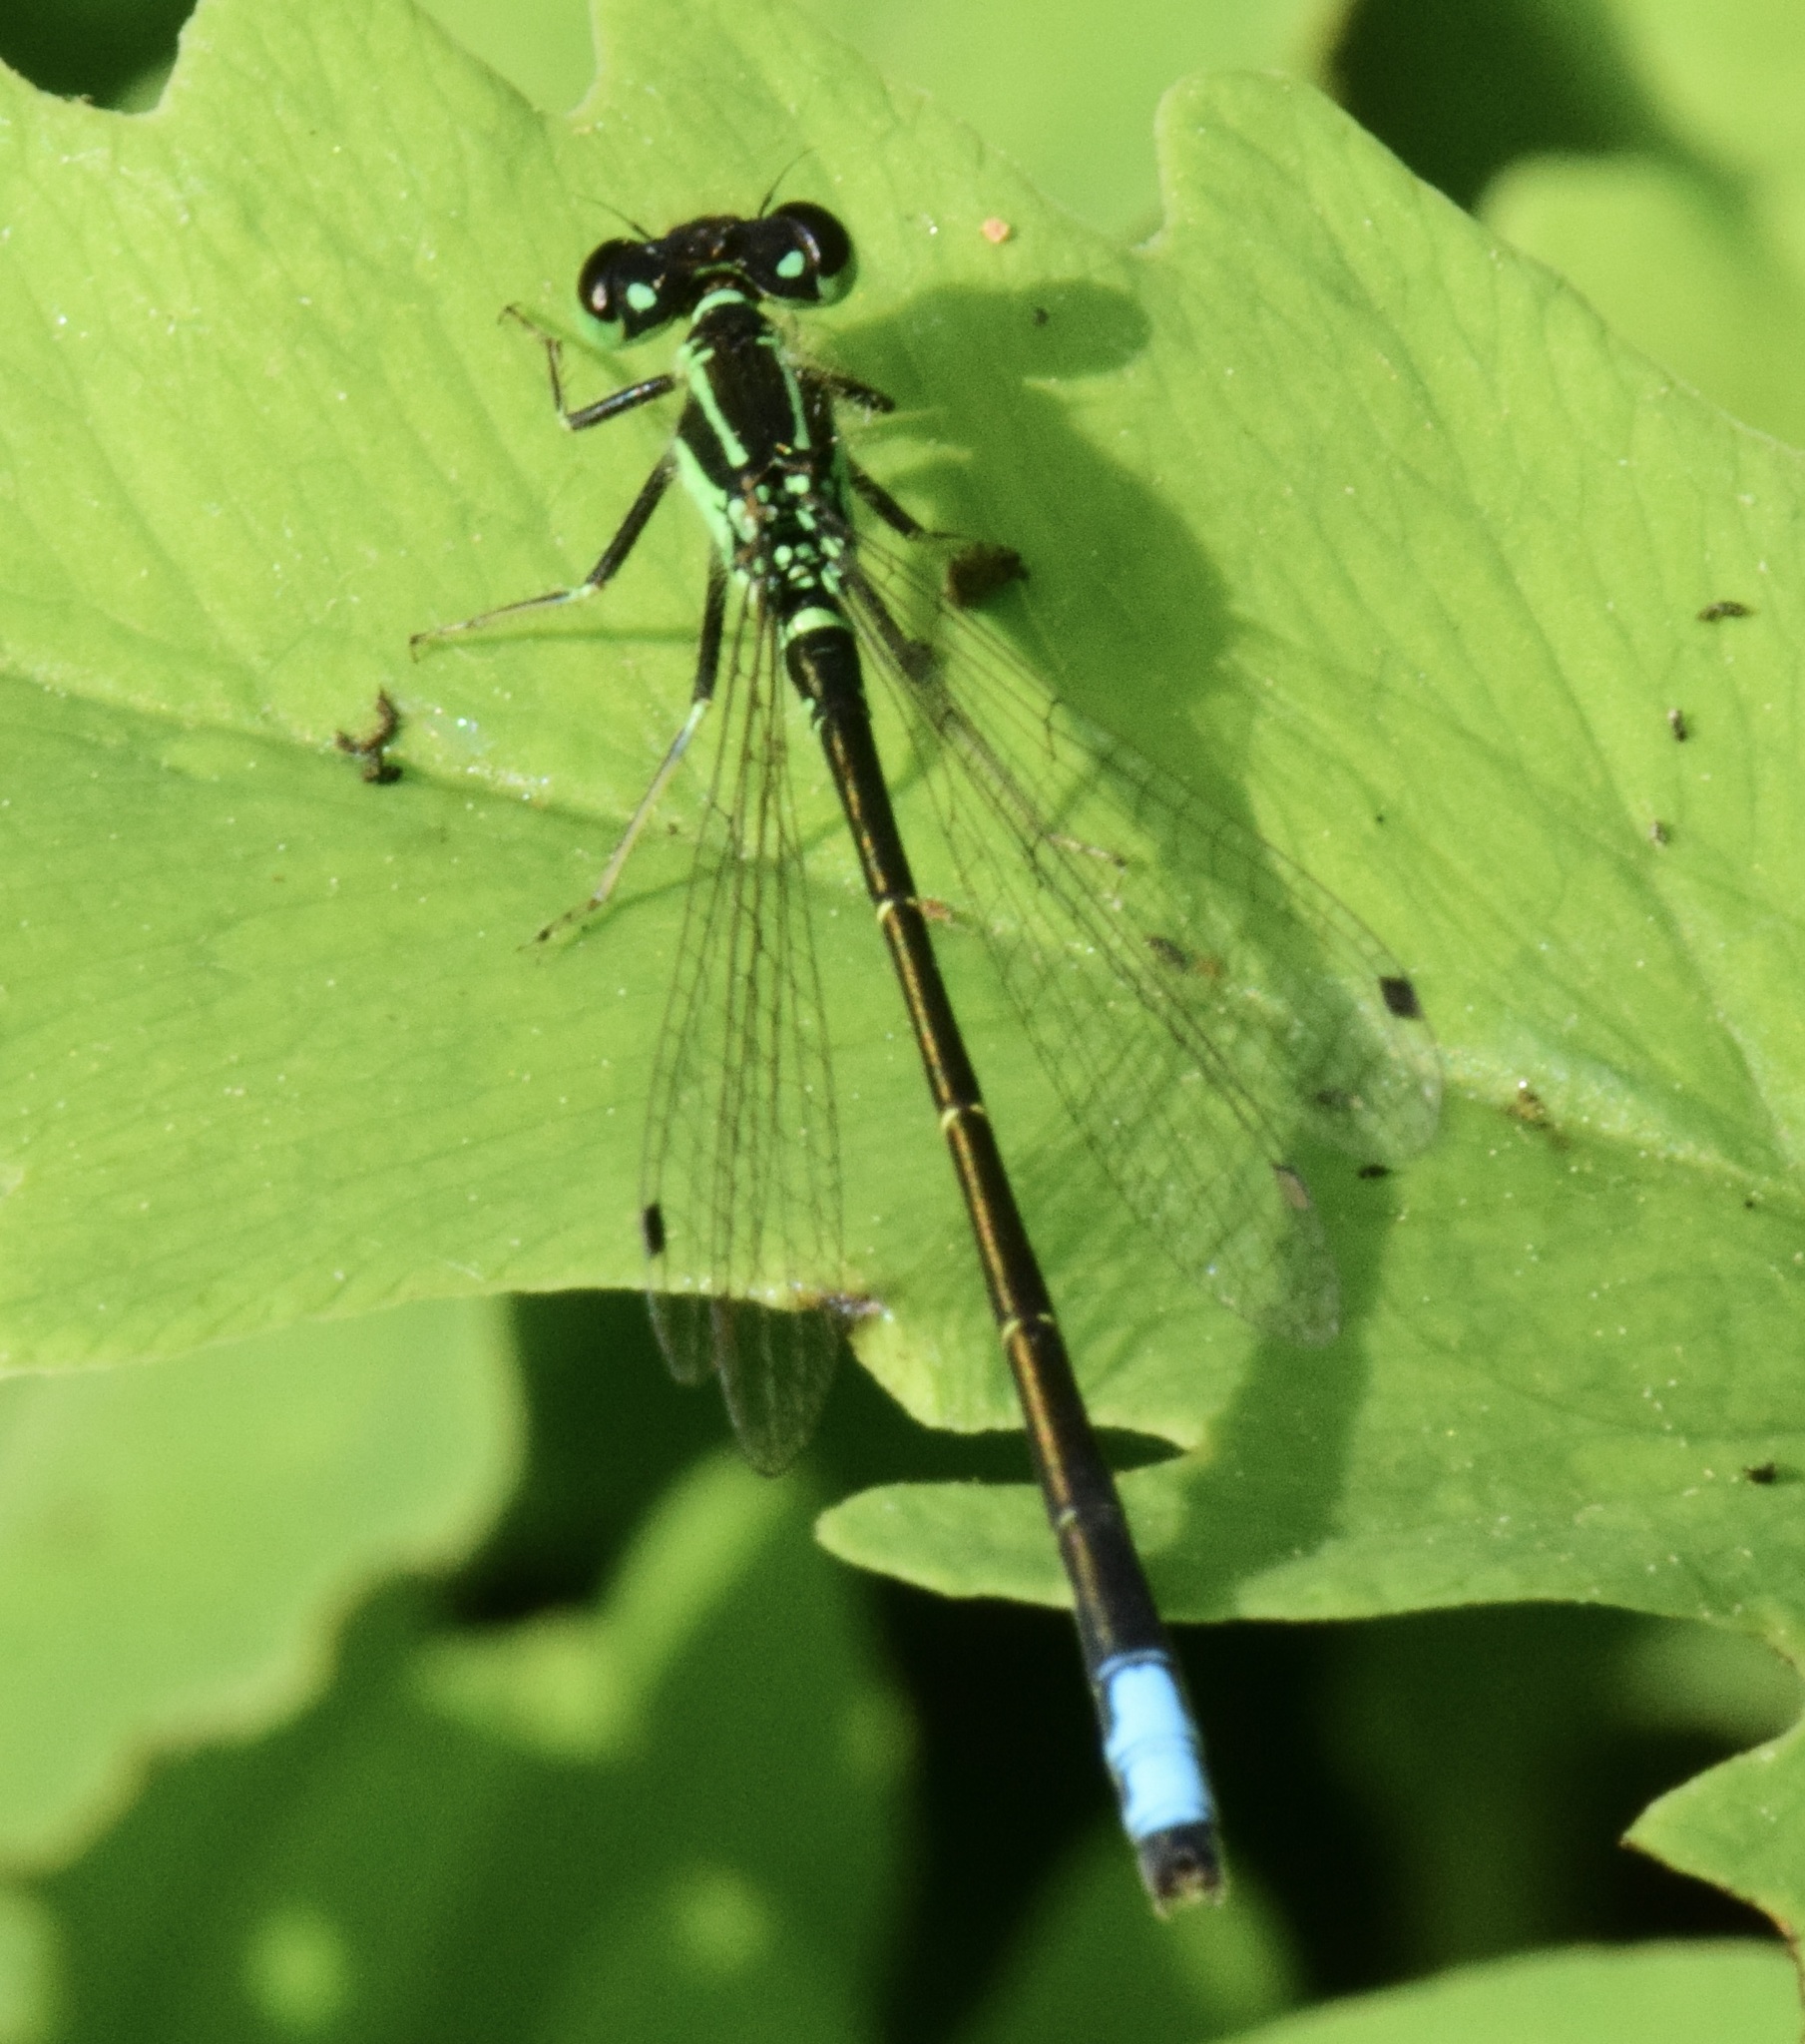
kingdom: Animalia
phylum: Arthropoda
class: Insecta
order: Odonata
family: Coenagrionidae
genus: Ischnura
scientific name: Ischnura verticalis
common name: Eastern forktail
